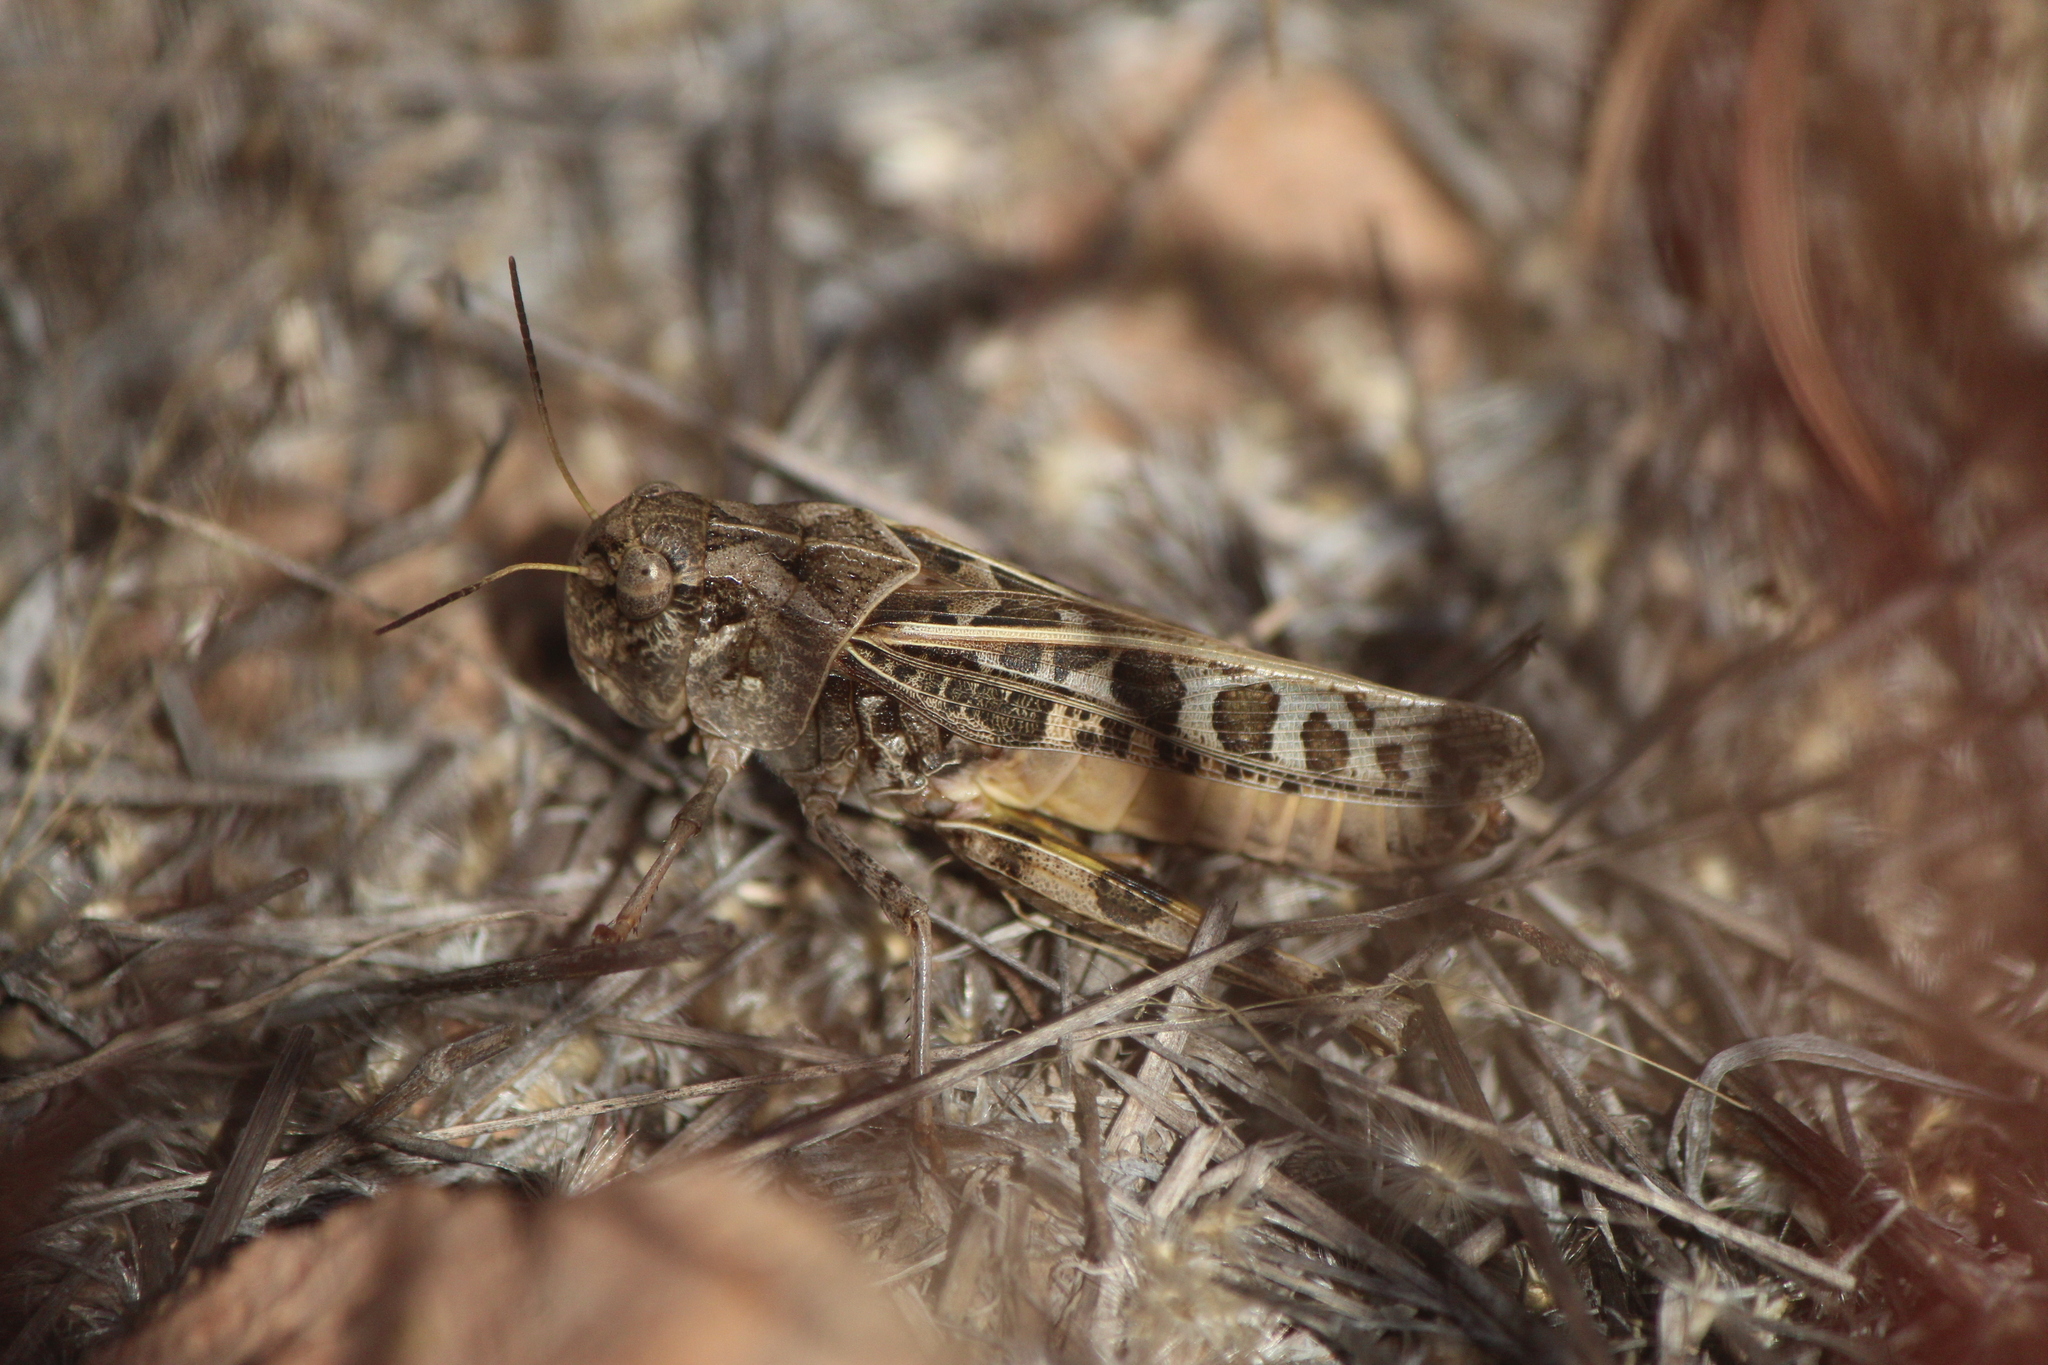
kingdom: Animalia
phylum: Arthropoda
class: Insecta
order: Orthoptera
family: Acrididae
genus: Hippiscus
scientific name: Hippiscus ocelote
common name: Wrinkled grasshopper
